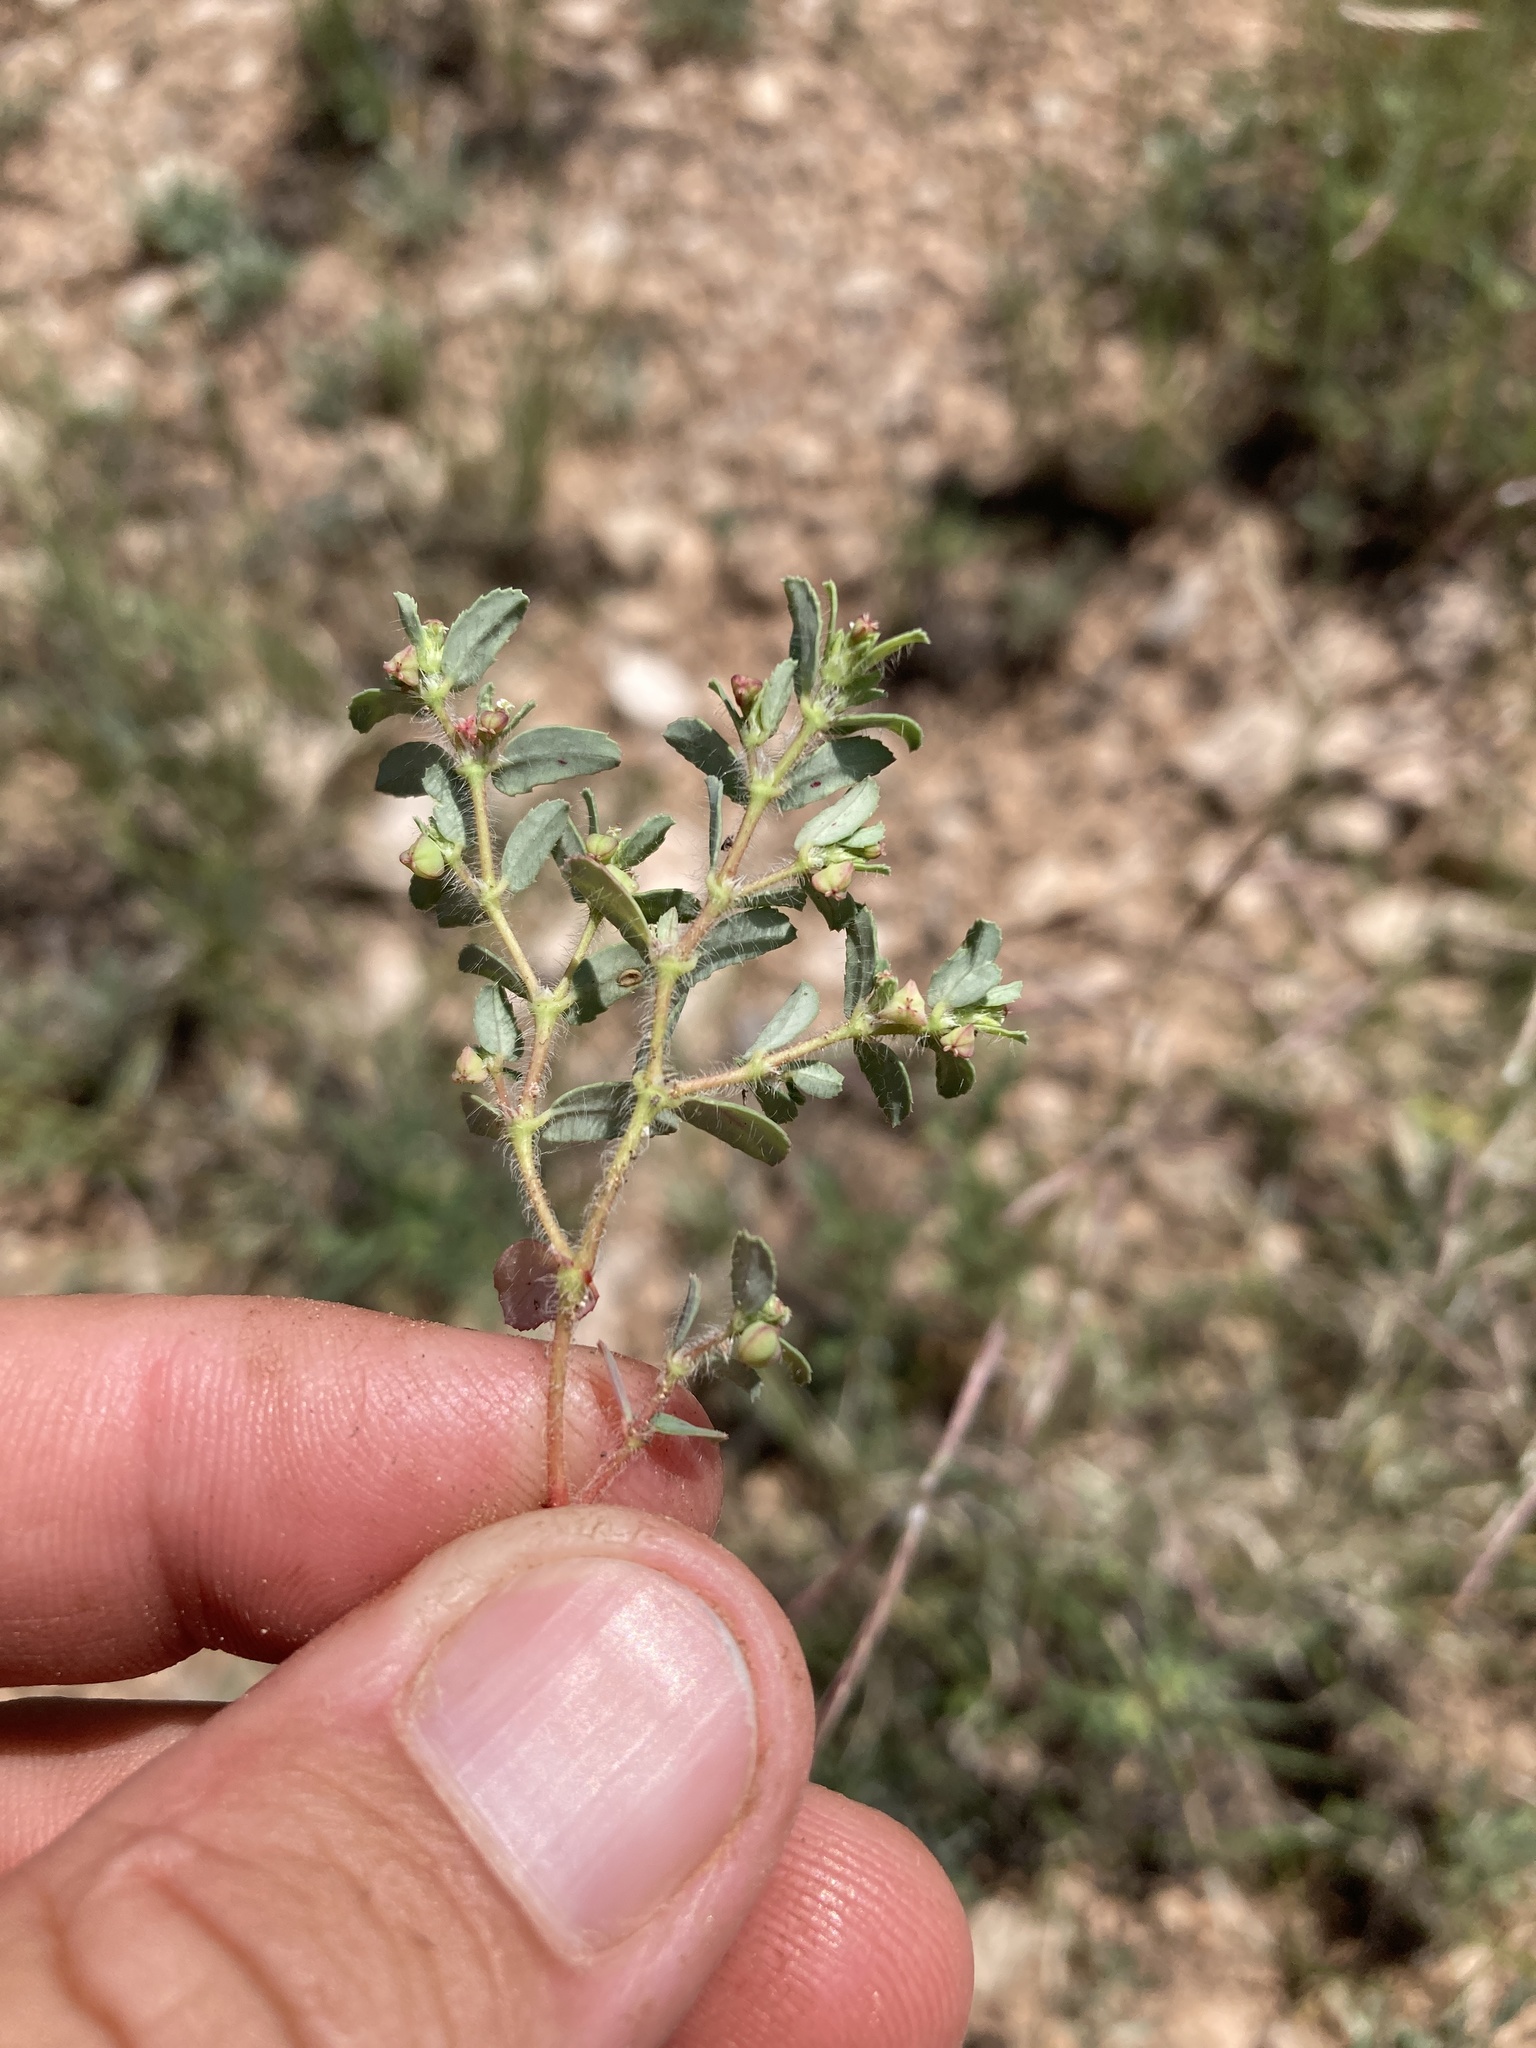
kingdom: Plantae
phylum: Tracheophyta
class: Magnoliopsida
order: Malpighiales
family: Euphorbiaceae
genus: Euphorbia
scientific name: Euphorbia serrula
